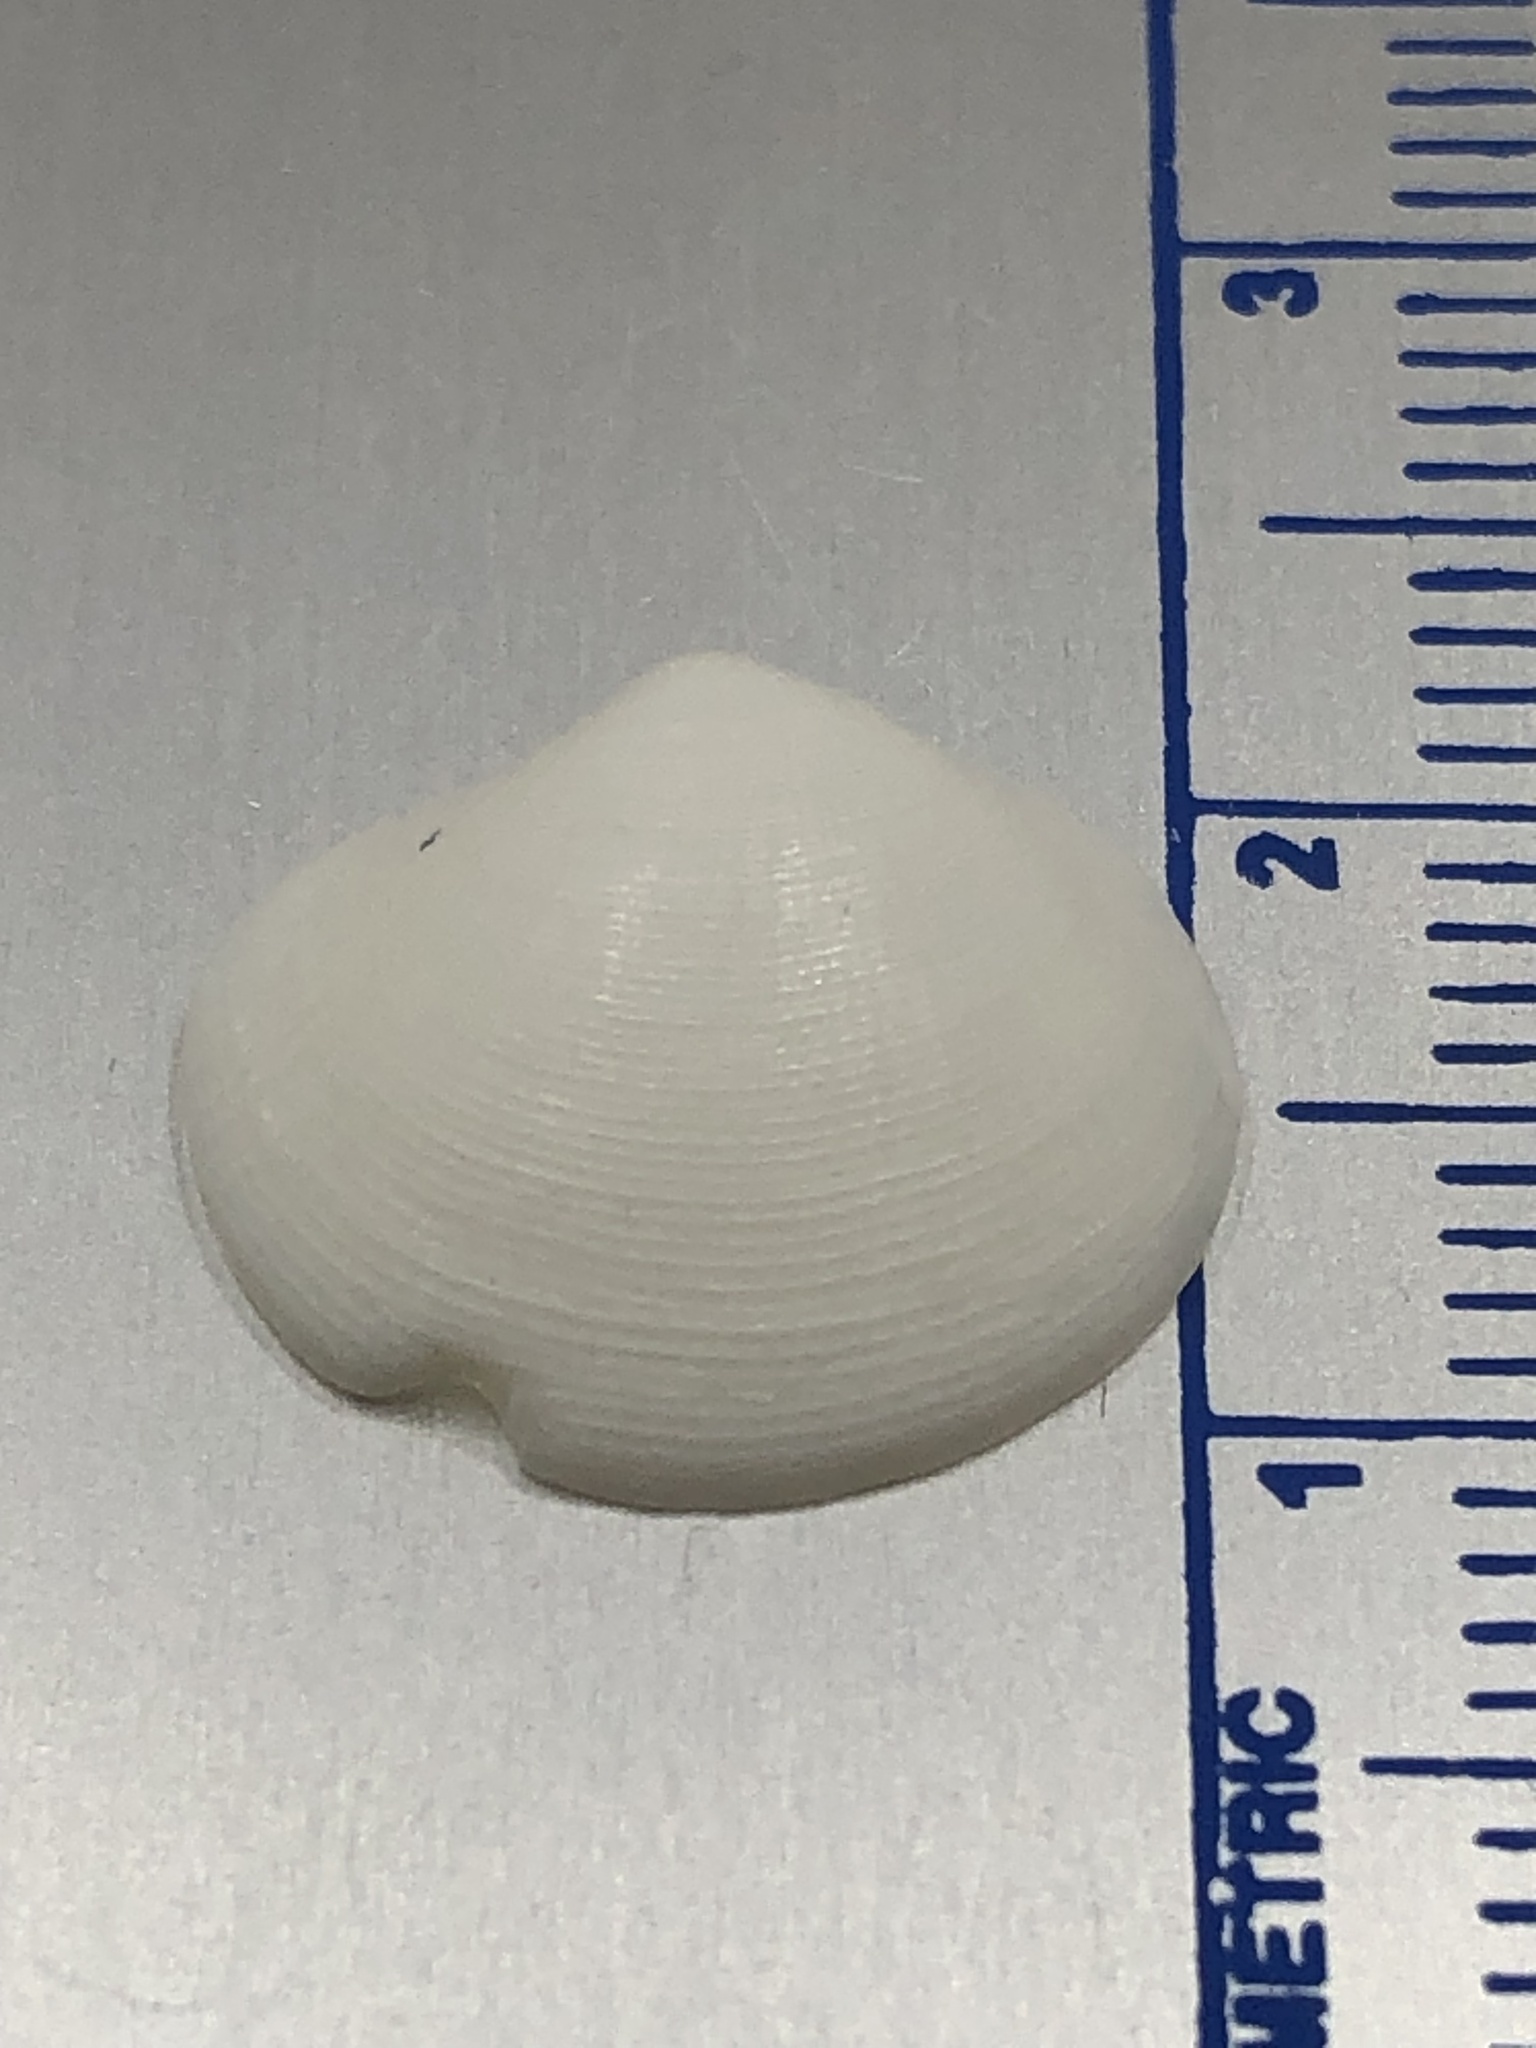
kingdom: Animalia
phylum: Mollusca
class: Bivalvia
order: Lucinida
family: Lucinidae
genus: Callucina
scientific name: Callucina keenae
